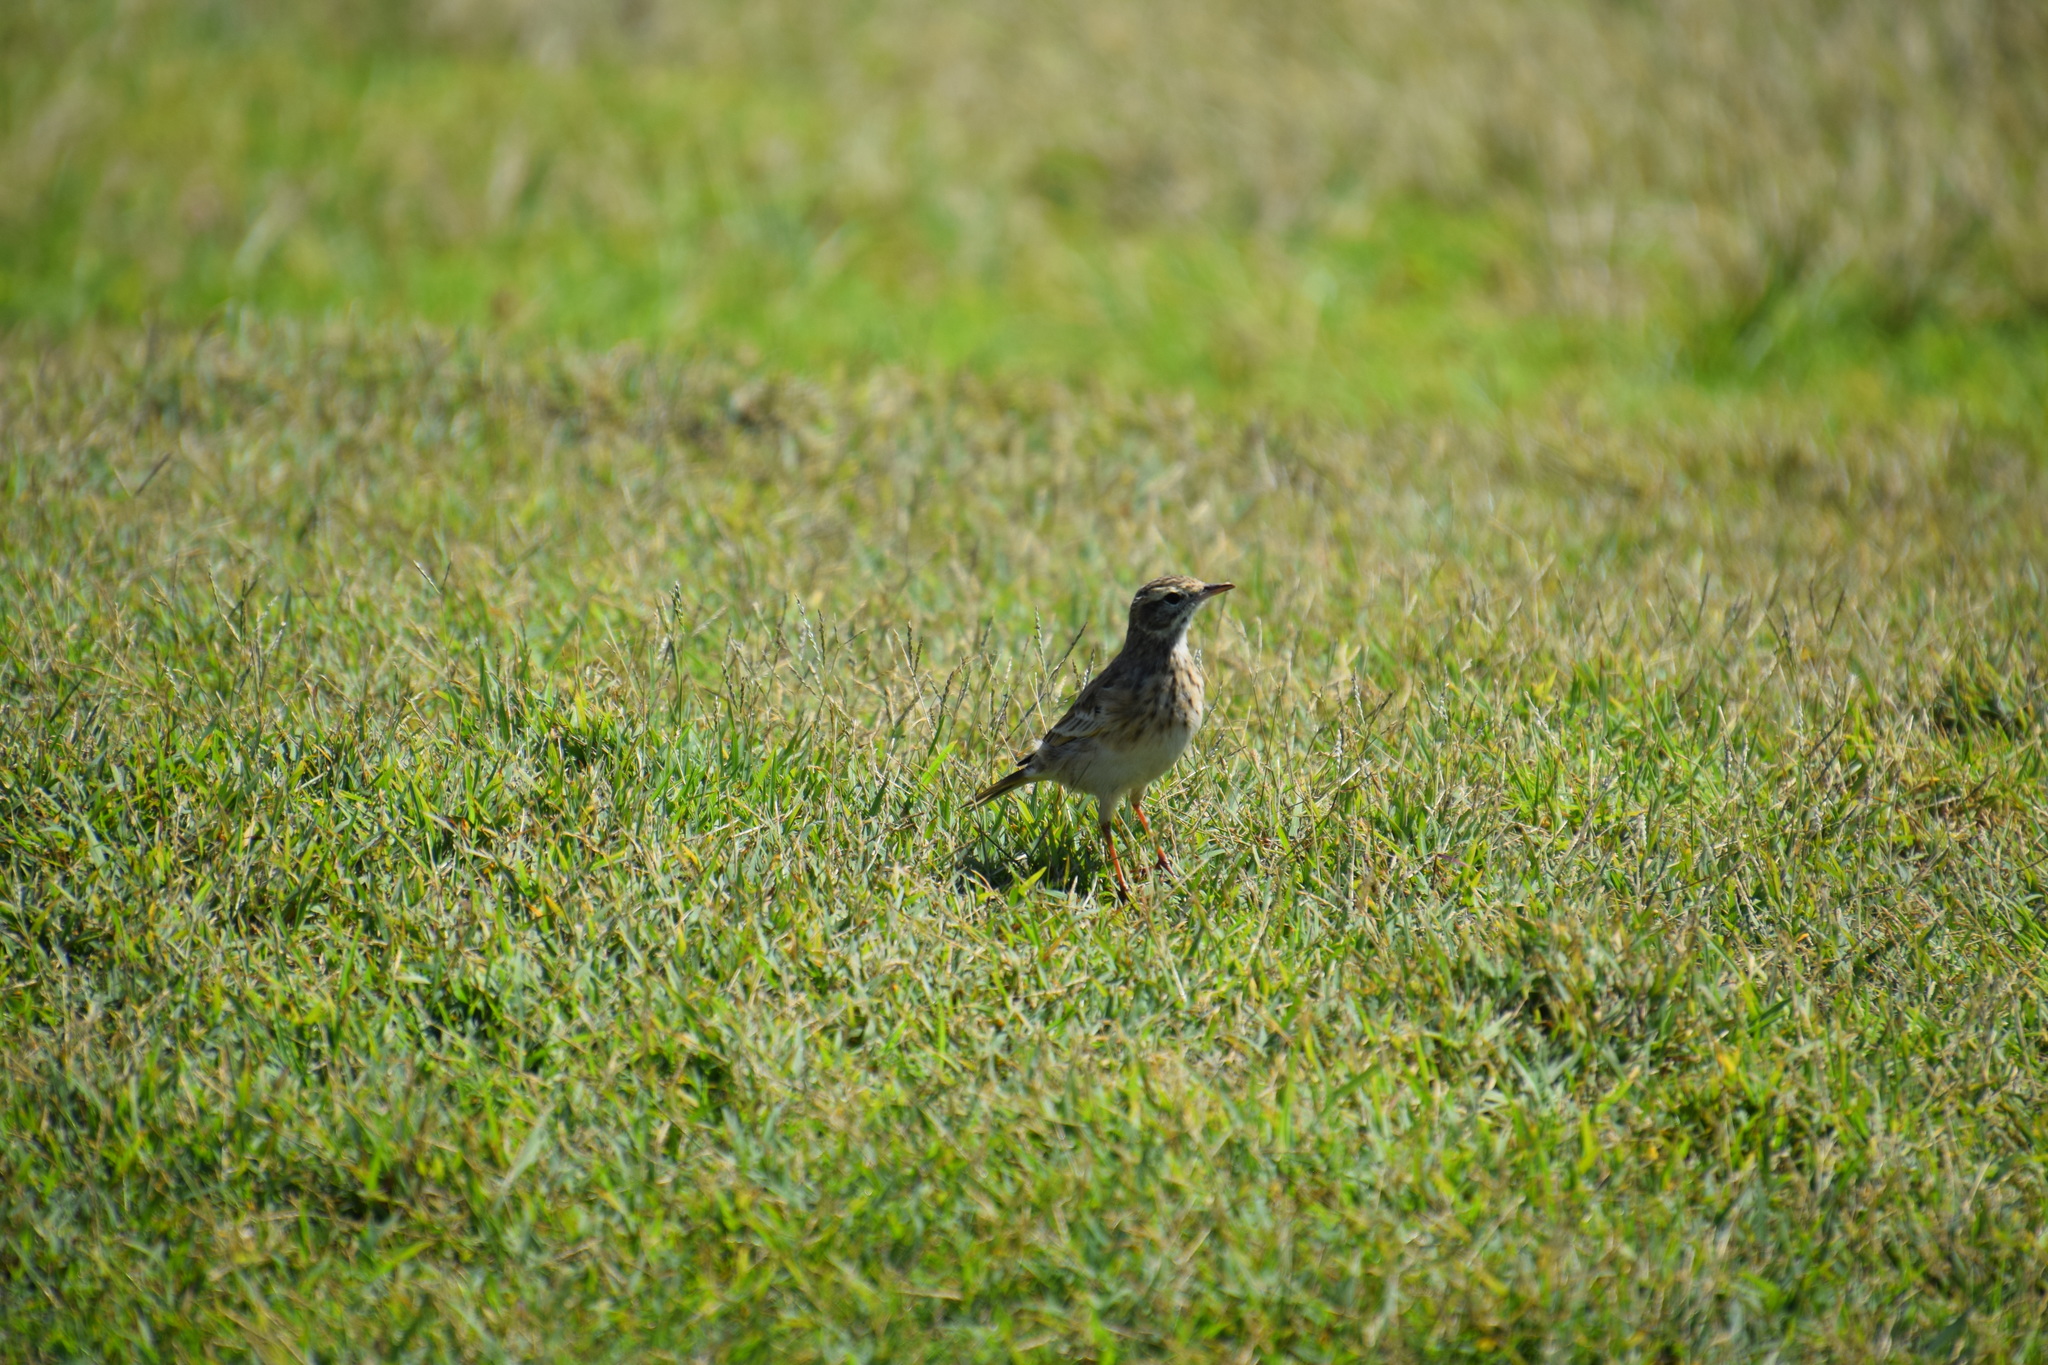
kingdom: Animalia
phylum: Chordata
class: Aves
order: Passeriformes
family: Motacillidae
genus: Anthus
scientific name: Anthus australis
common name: Australian pipit
